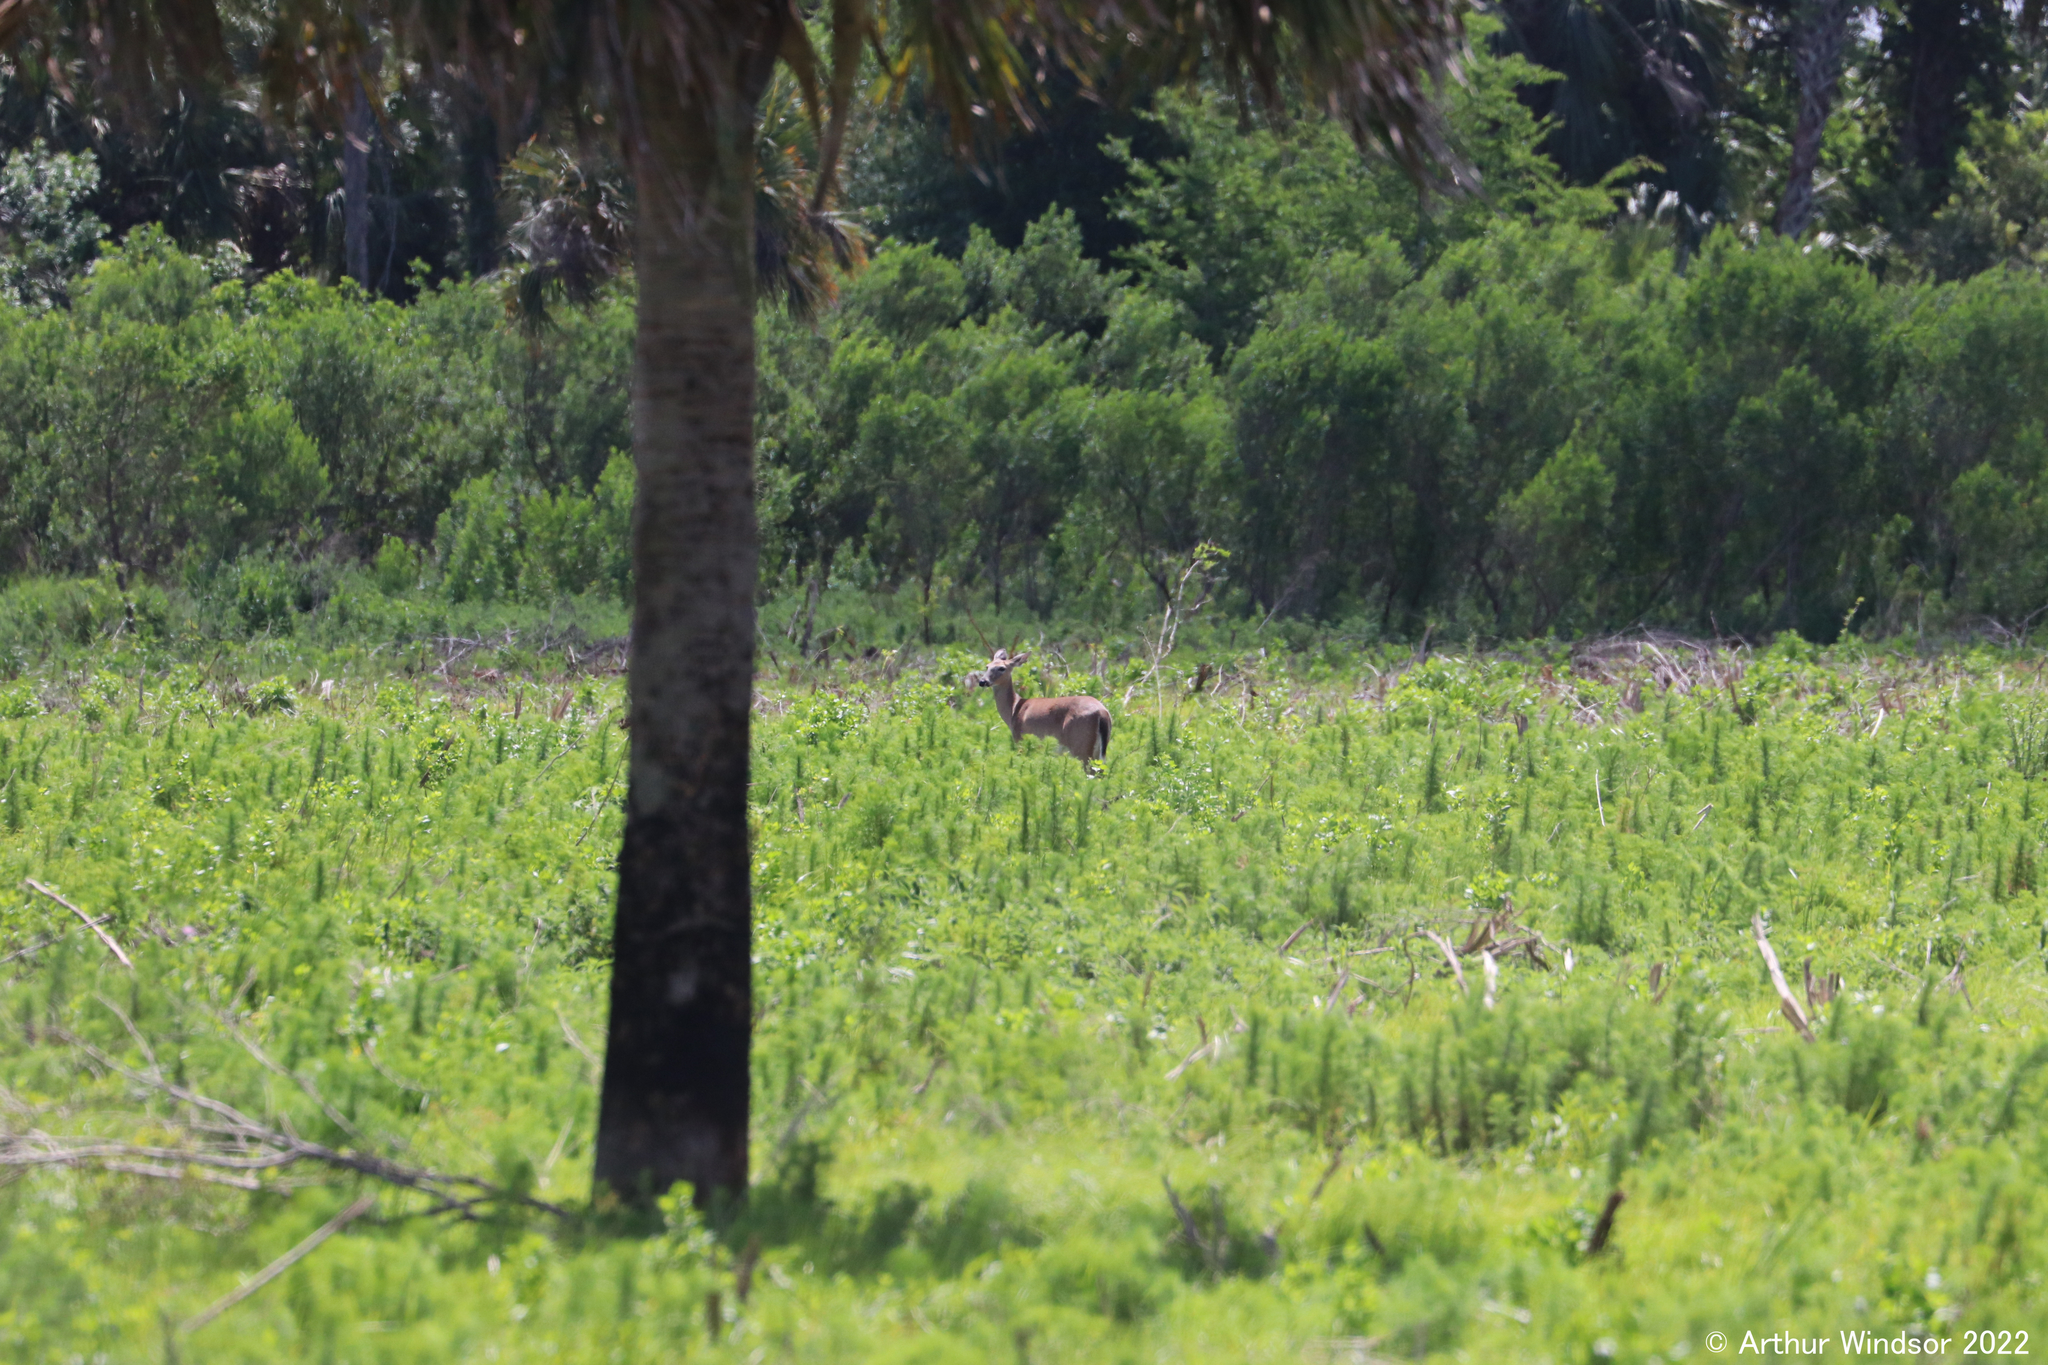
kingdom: Animalia
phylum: Chordata
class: Mammalia
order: Artiodactyla
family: Cervidae
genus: Odocoileus
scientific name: Odocoileus virginianus
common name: White-tailed deer
